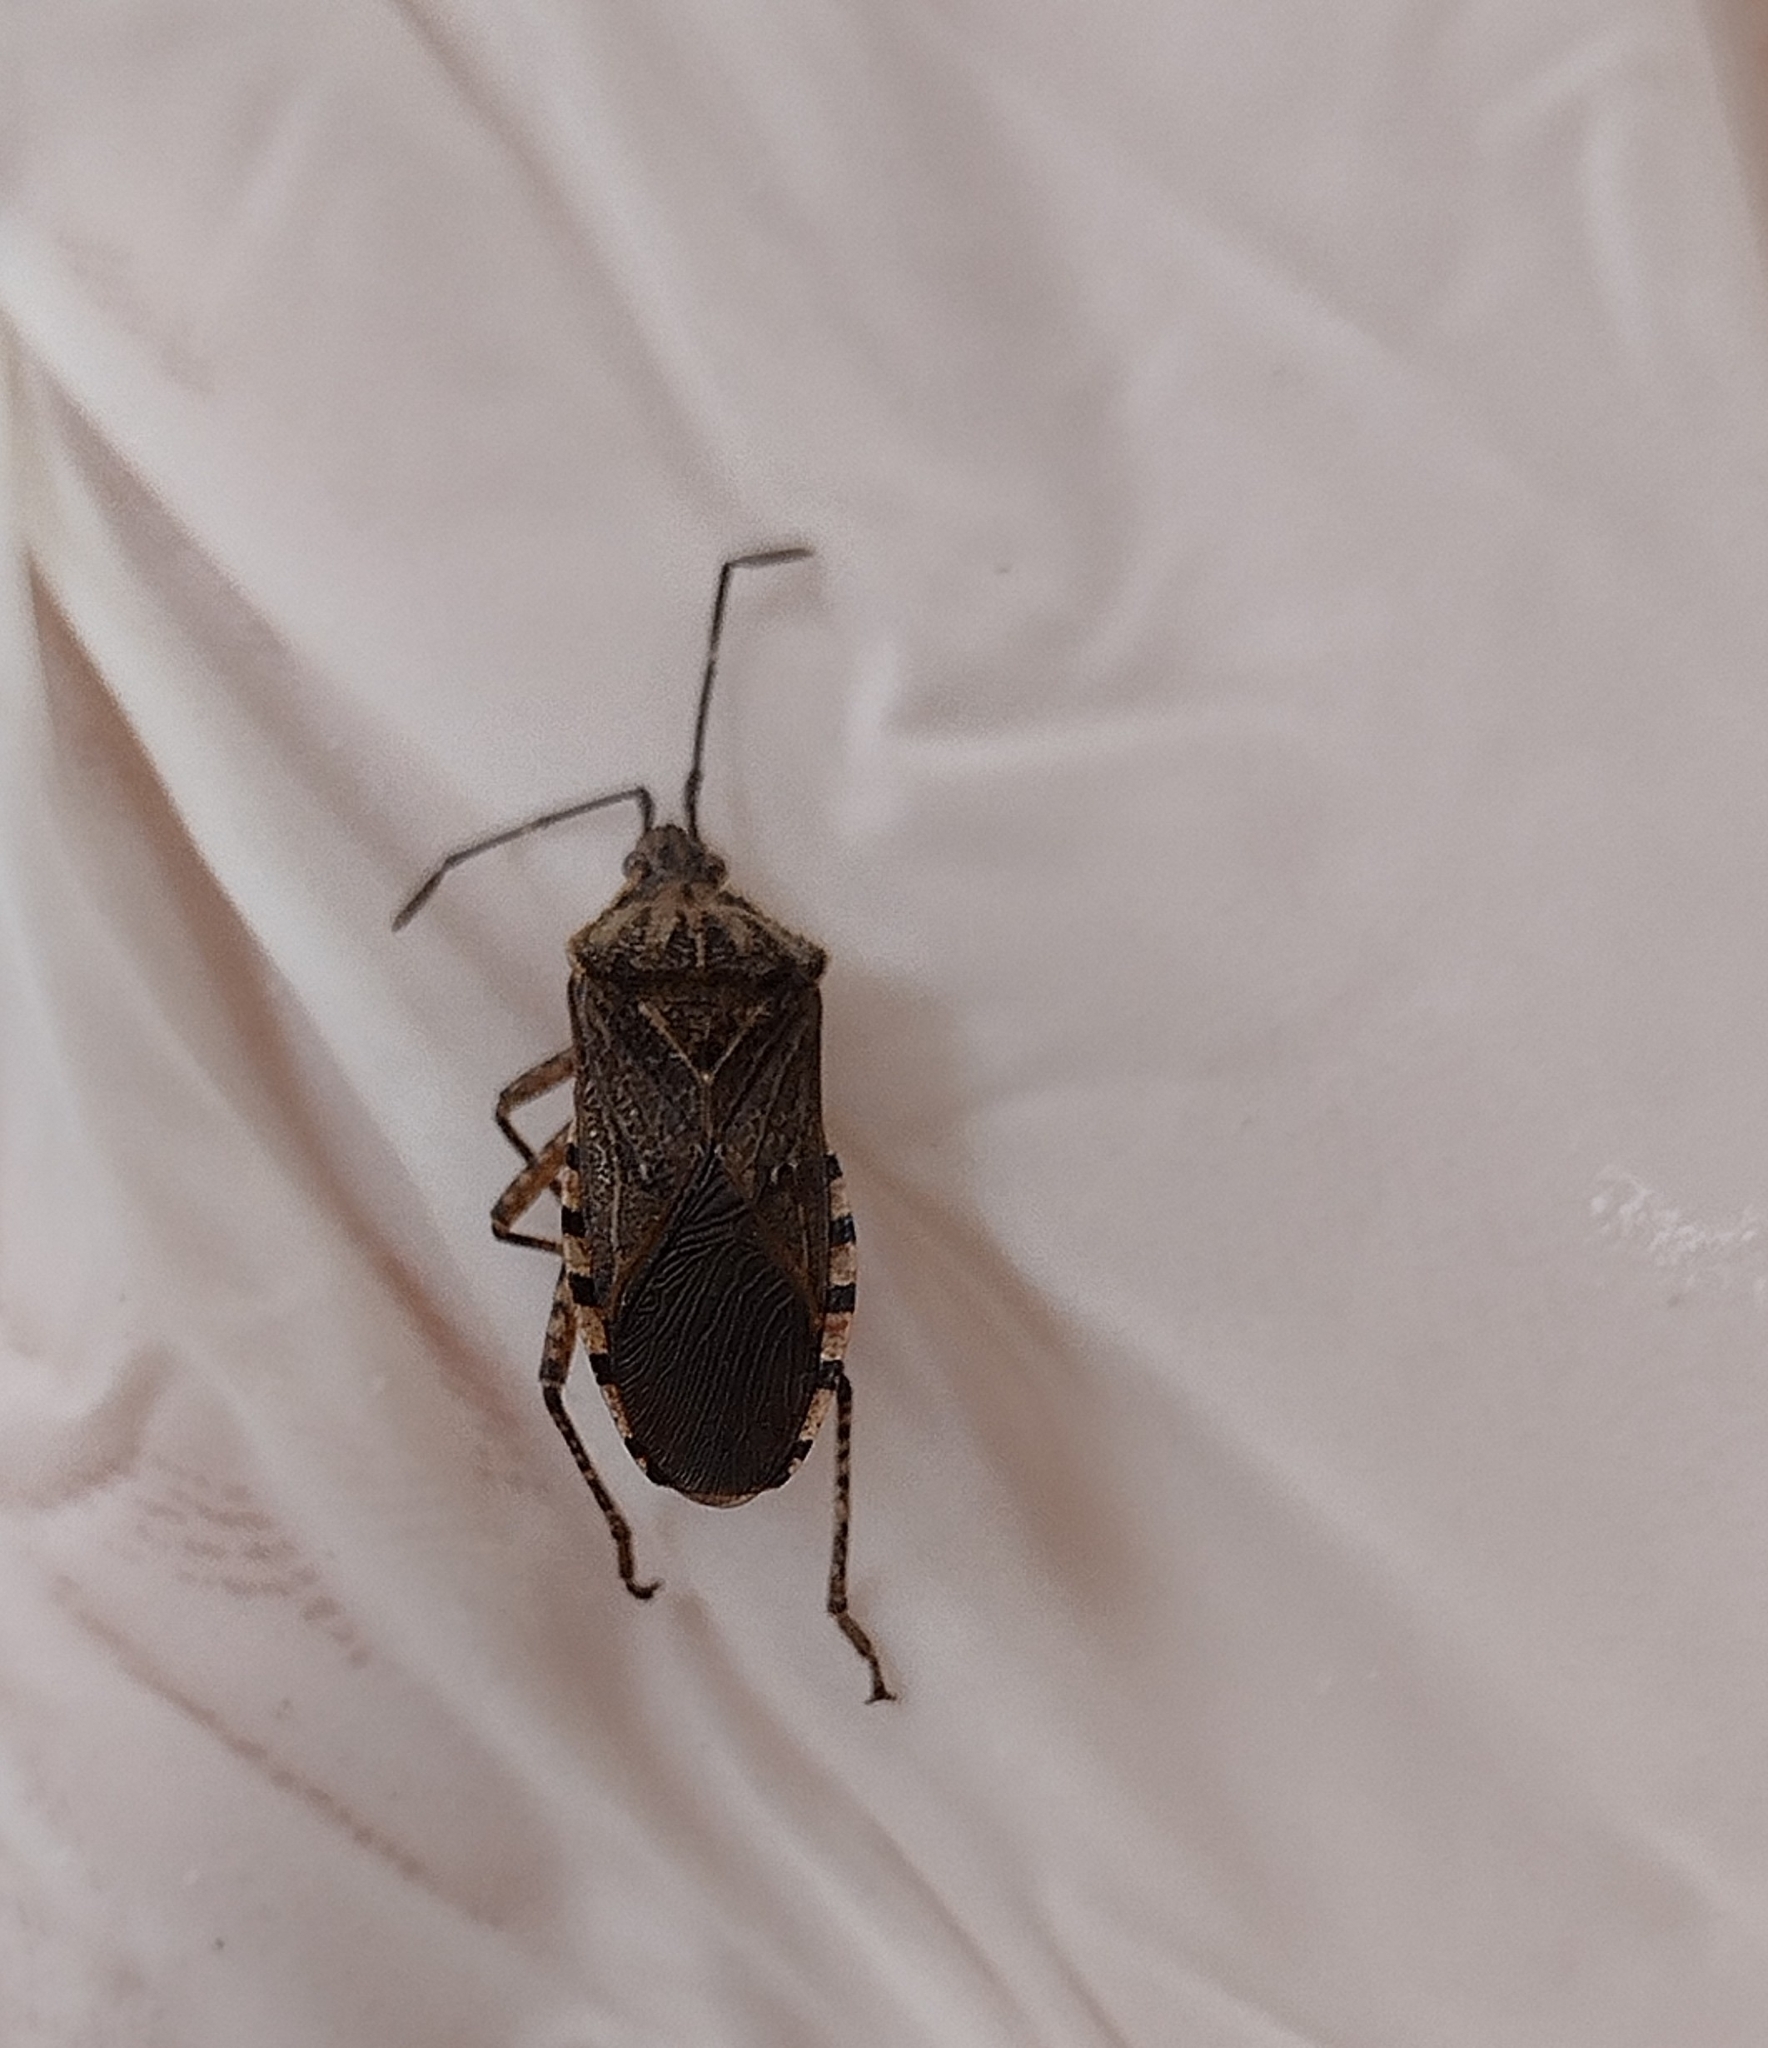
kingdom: Animalia
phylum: Arthropoda
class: Insecta
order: Hemiptera
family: Coreidae
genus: Acidomeria
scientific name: Acidomeria cincticornis
